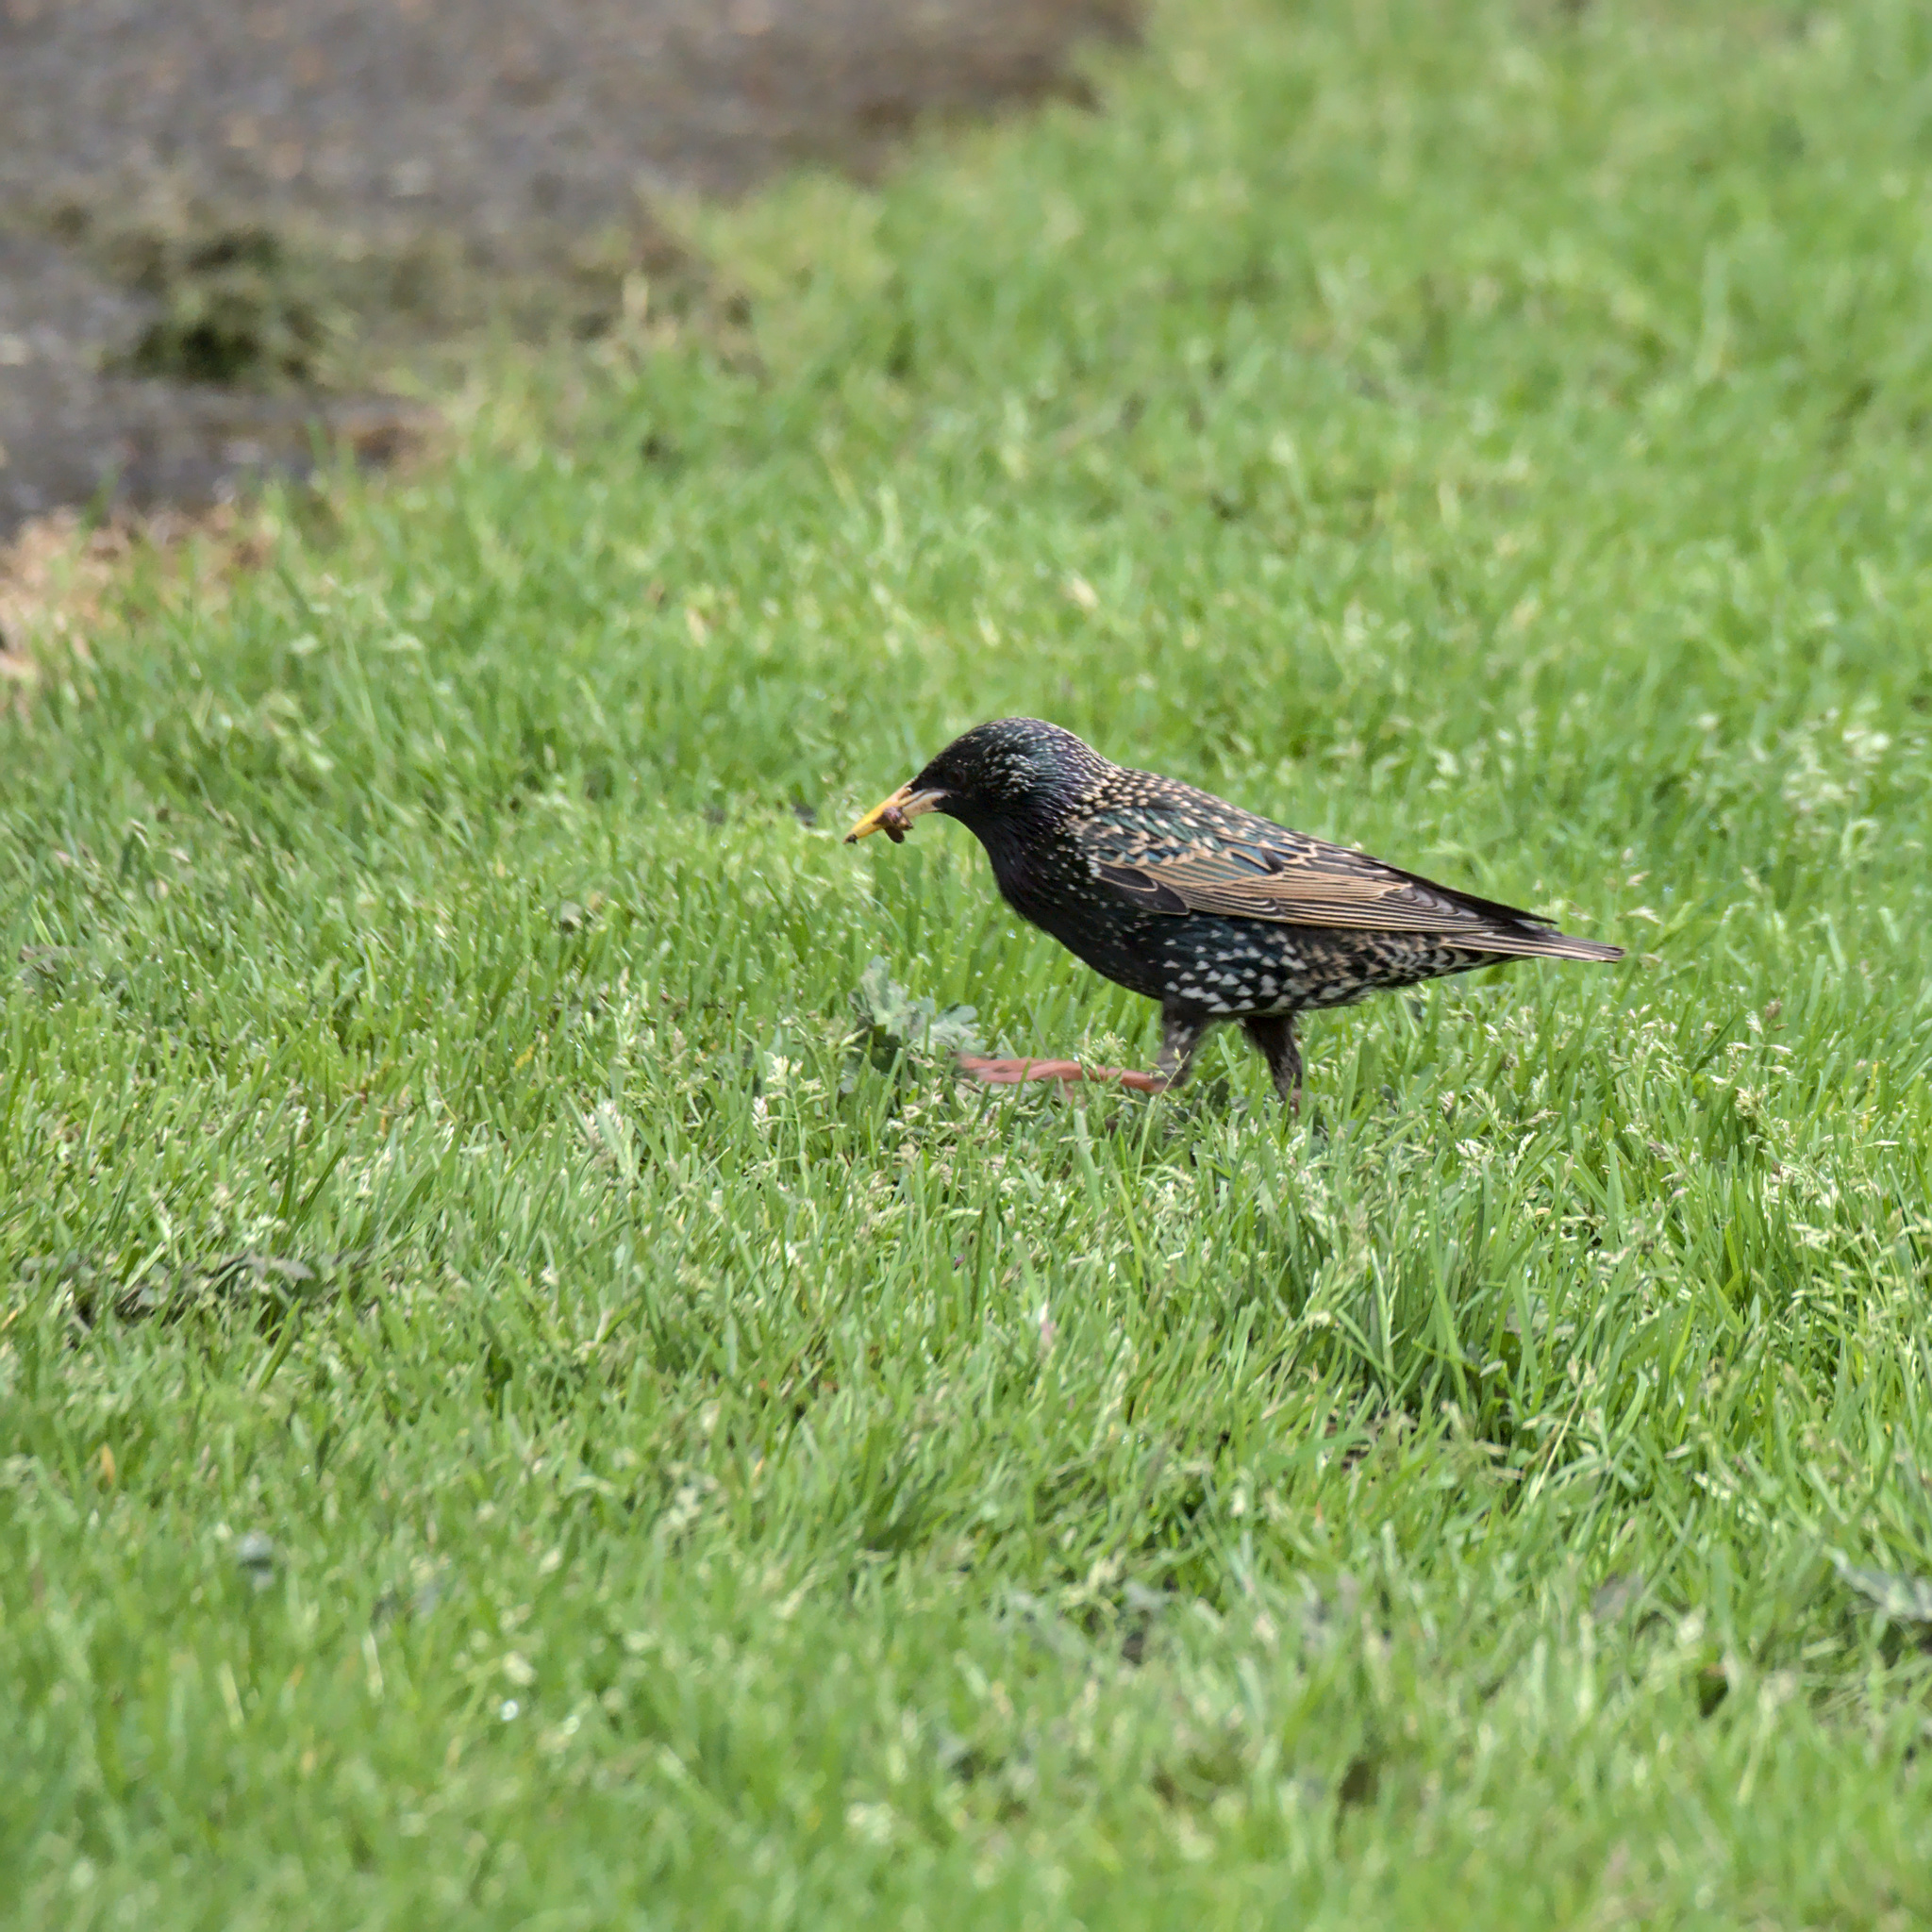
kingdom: Animalia
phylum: Chordata
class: Aves
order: Passeriformes
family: Sturnidae
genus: Sturnus
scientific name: Sturnus vulgaris
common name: Common starling
